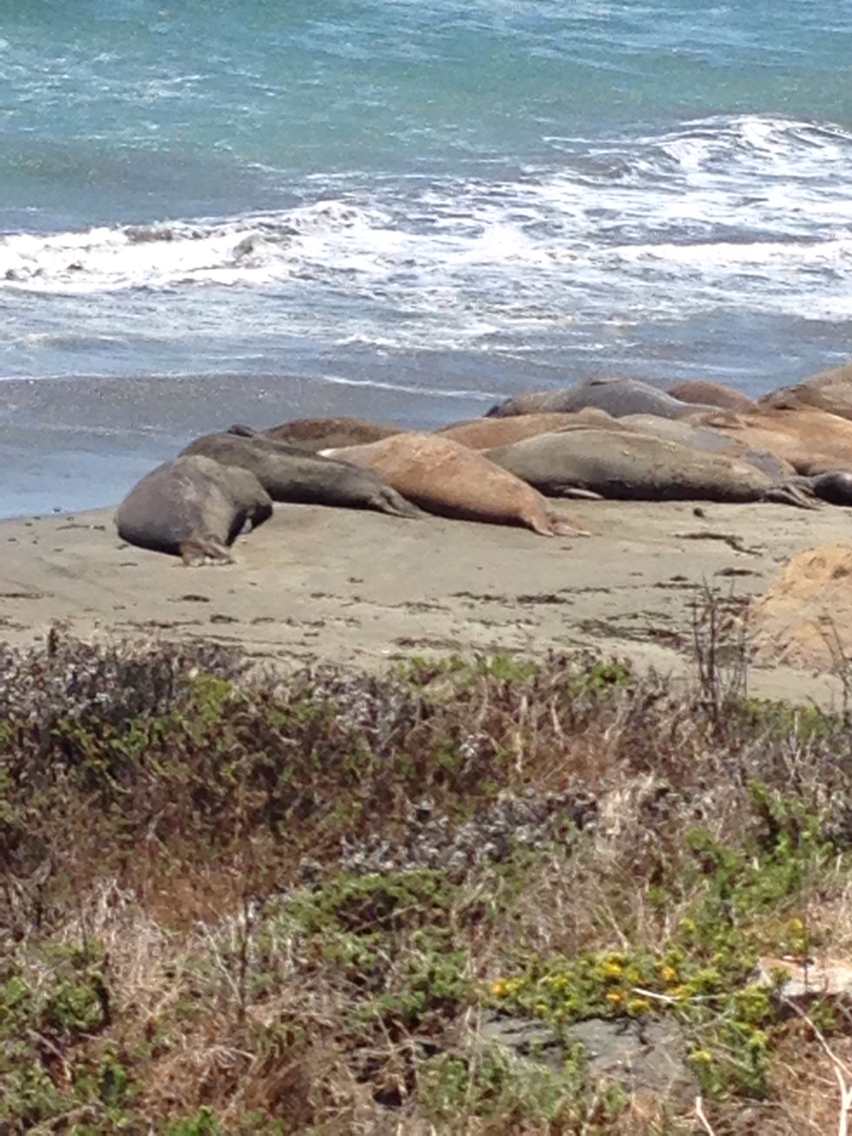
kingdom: Animalia
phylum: Chordata
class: Mammalia
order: Carnivora
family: Phocidae
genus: Mirounga
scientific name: Mirounga angustirostris
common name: Northern elephant seal
